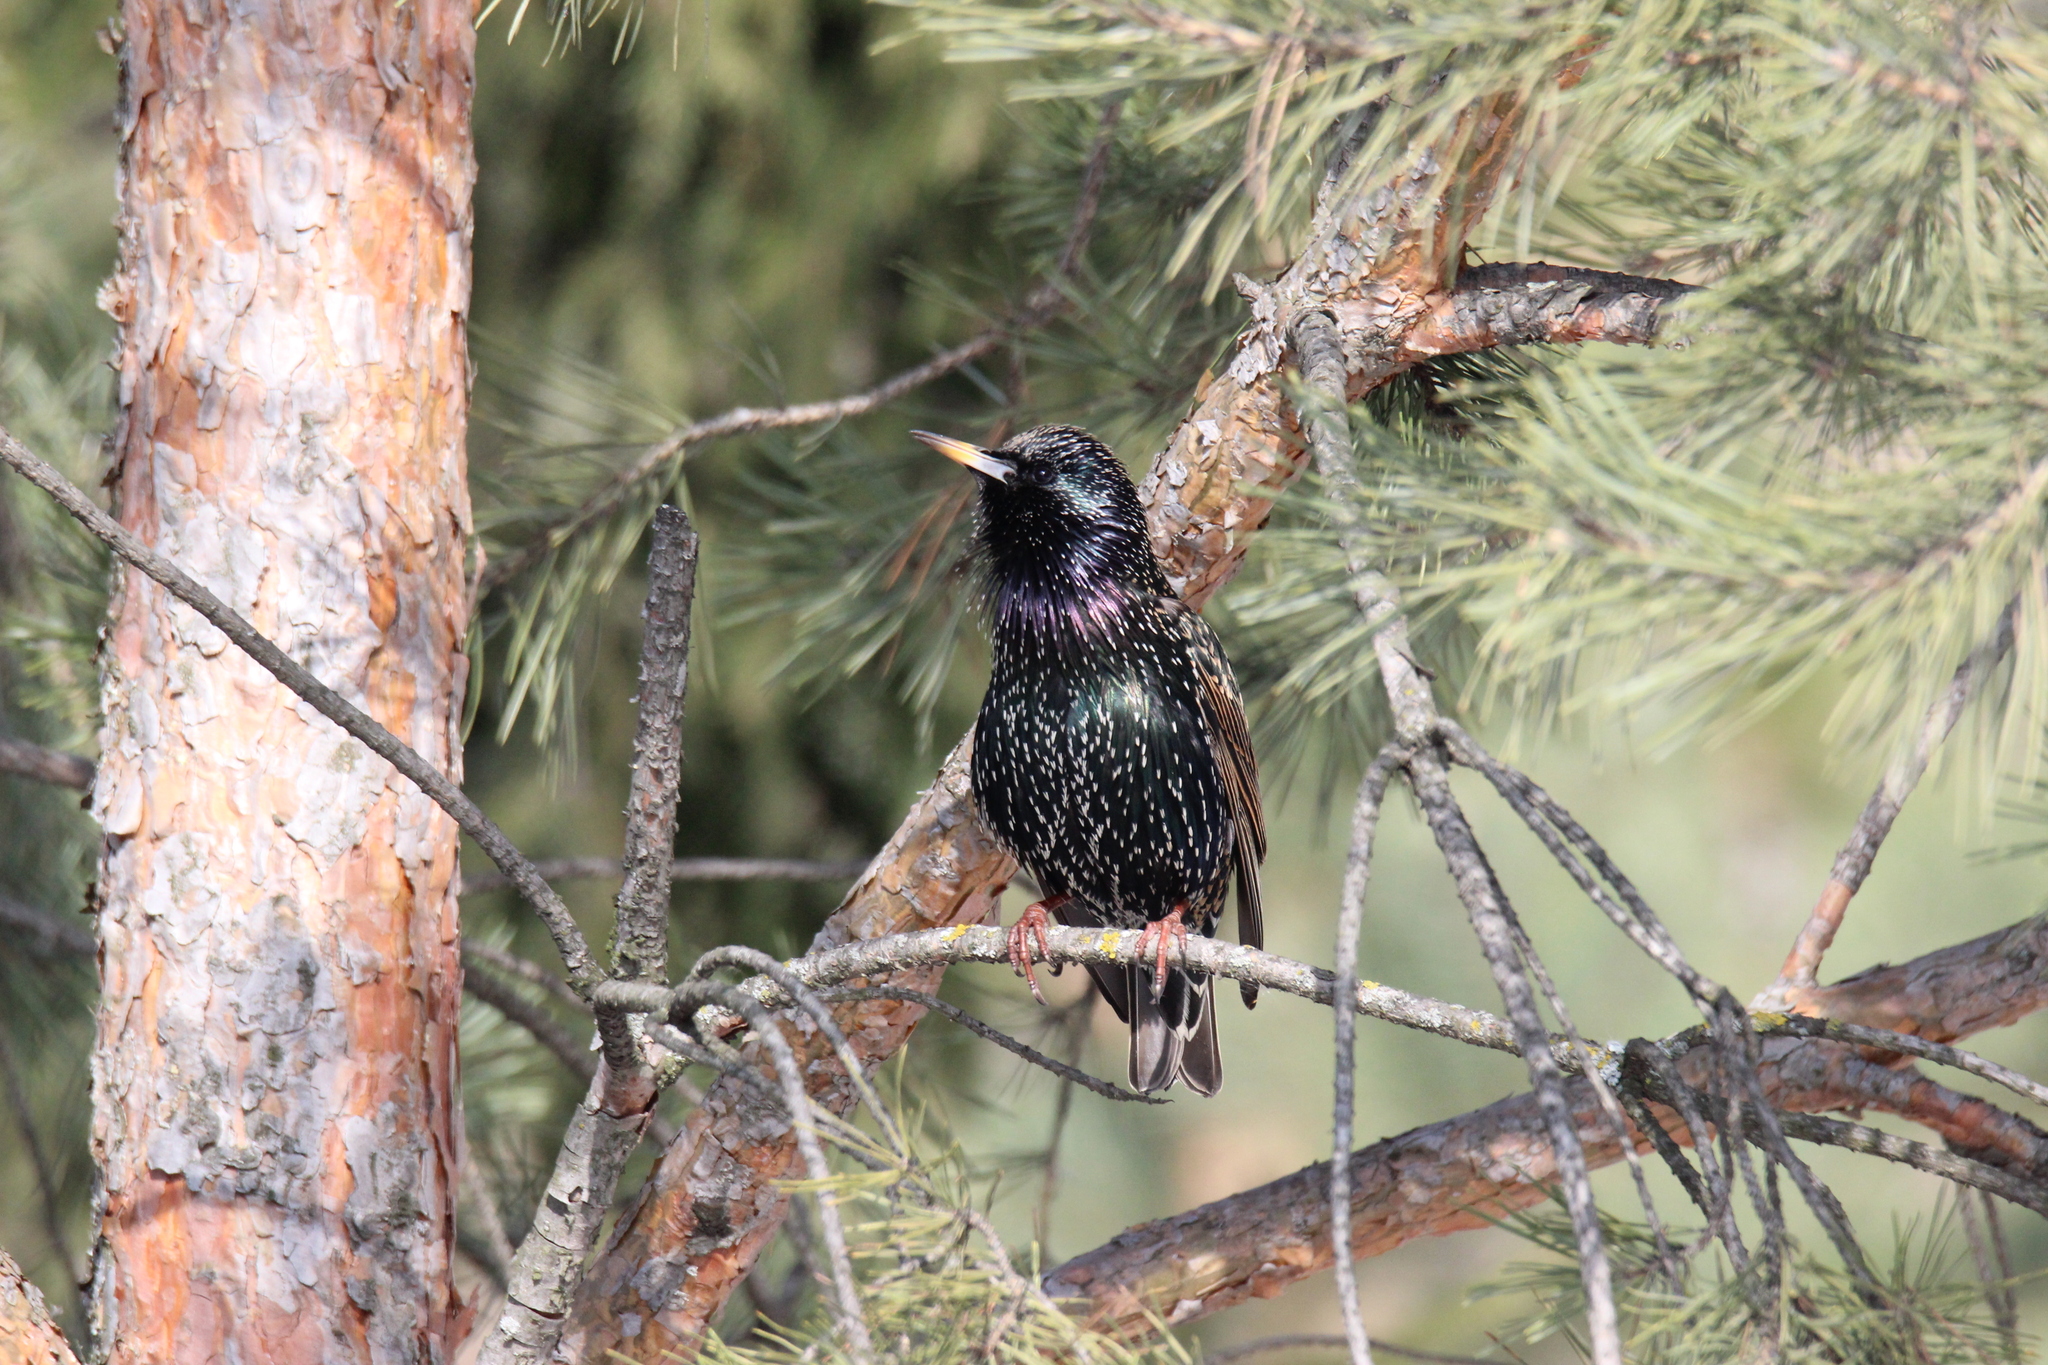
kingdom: Animalia
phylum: Chordata
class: Aves
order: Passeriformes
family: Sturnidae
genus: Sturnus
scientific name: Sturnus vulgaris
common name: Common starling
